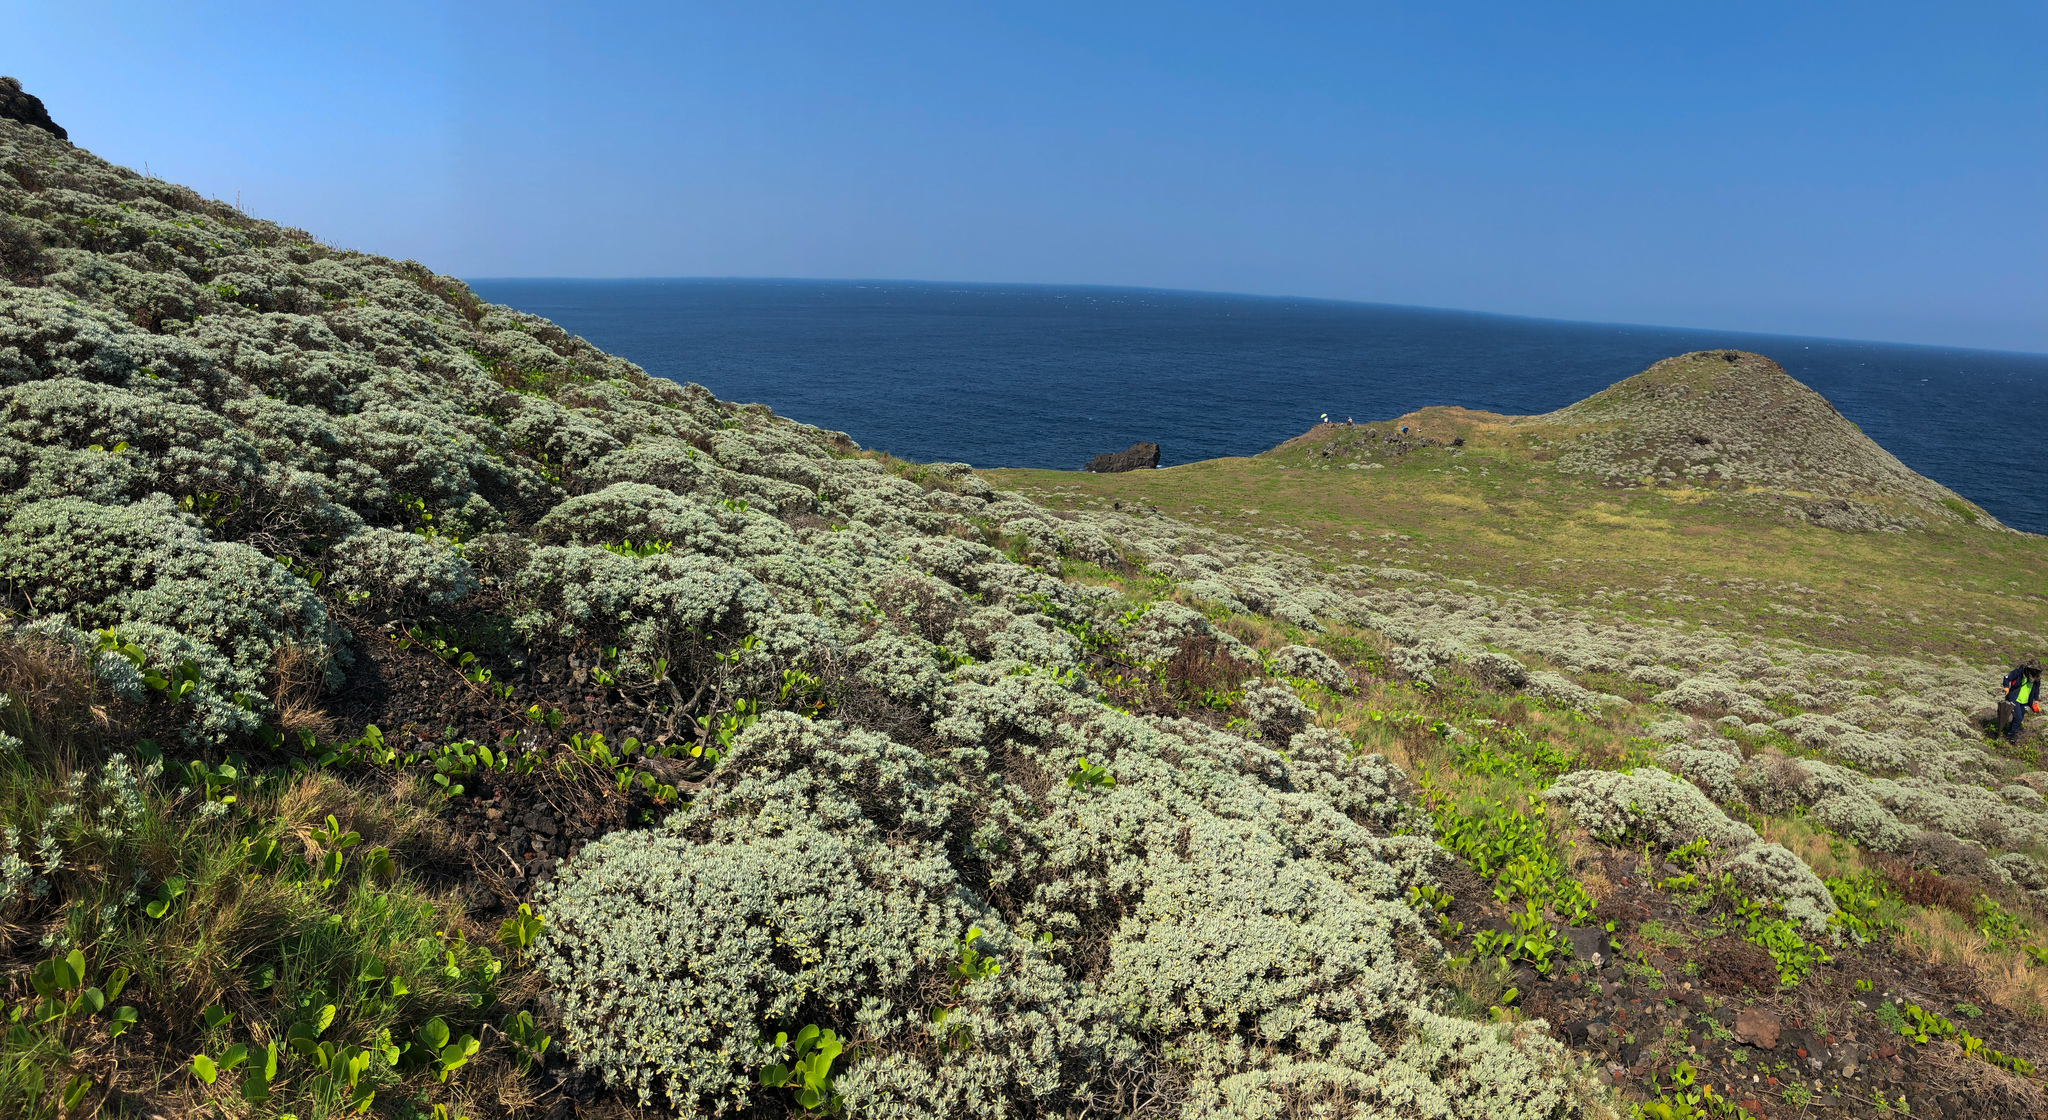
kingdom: Plantae
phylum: Tracheophyta
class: Magnoliopsida
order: Asterales
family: Asteraceae
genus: Crossostephium
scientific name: Crossostephium chinense
